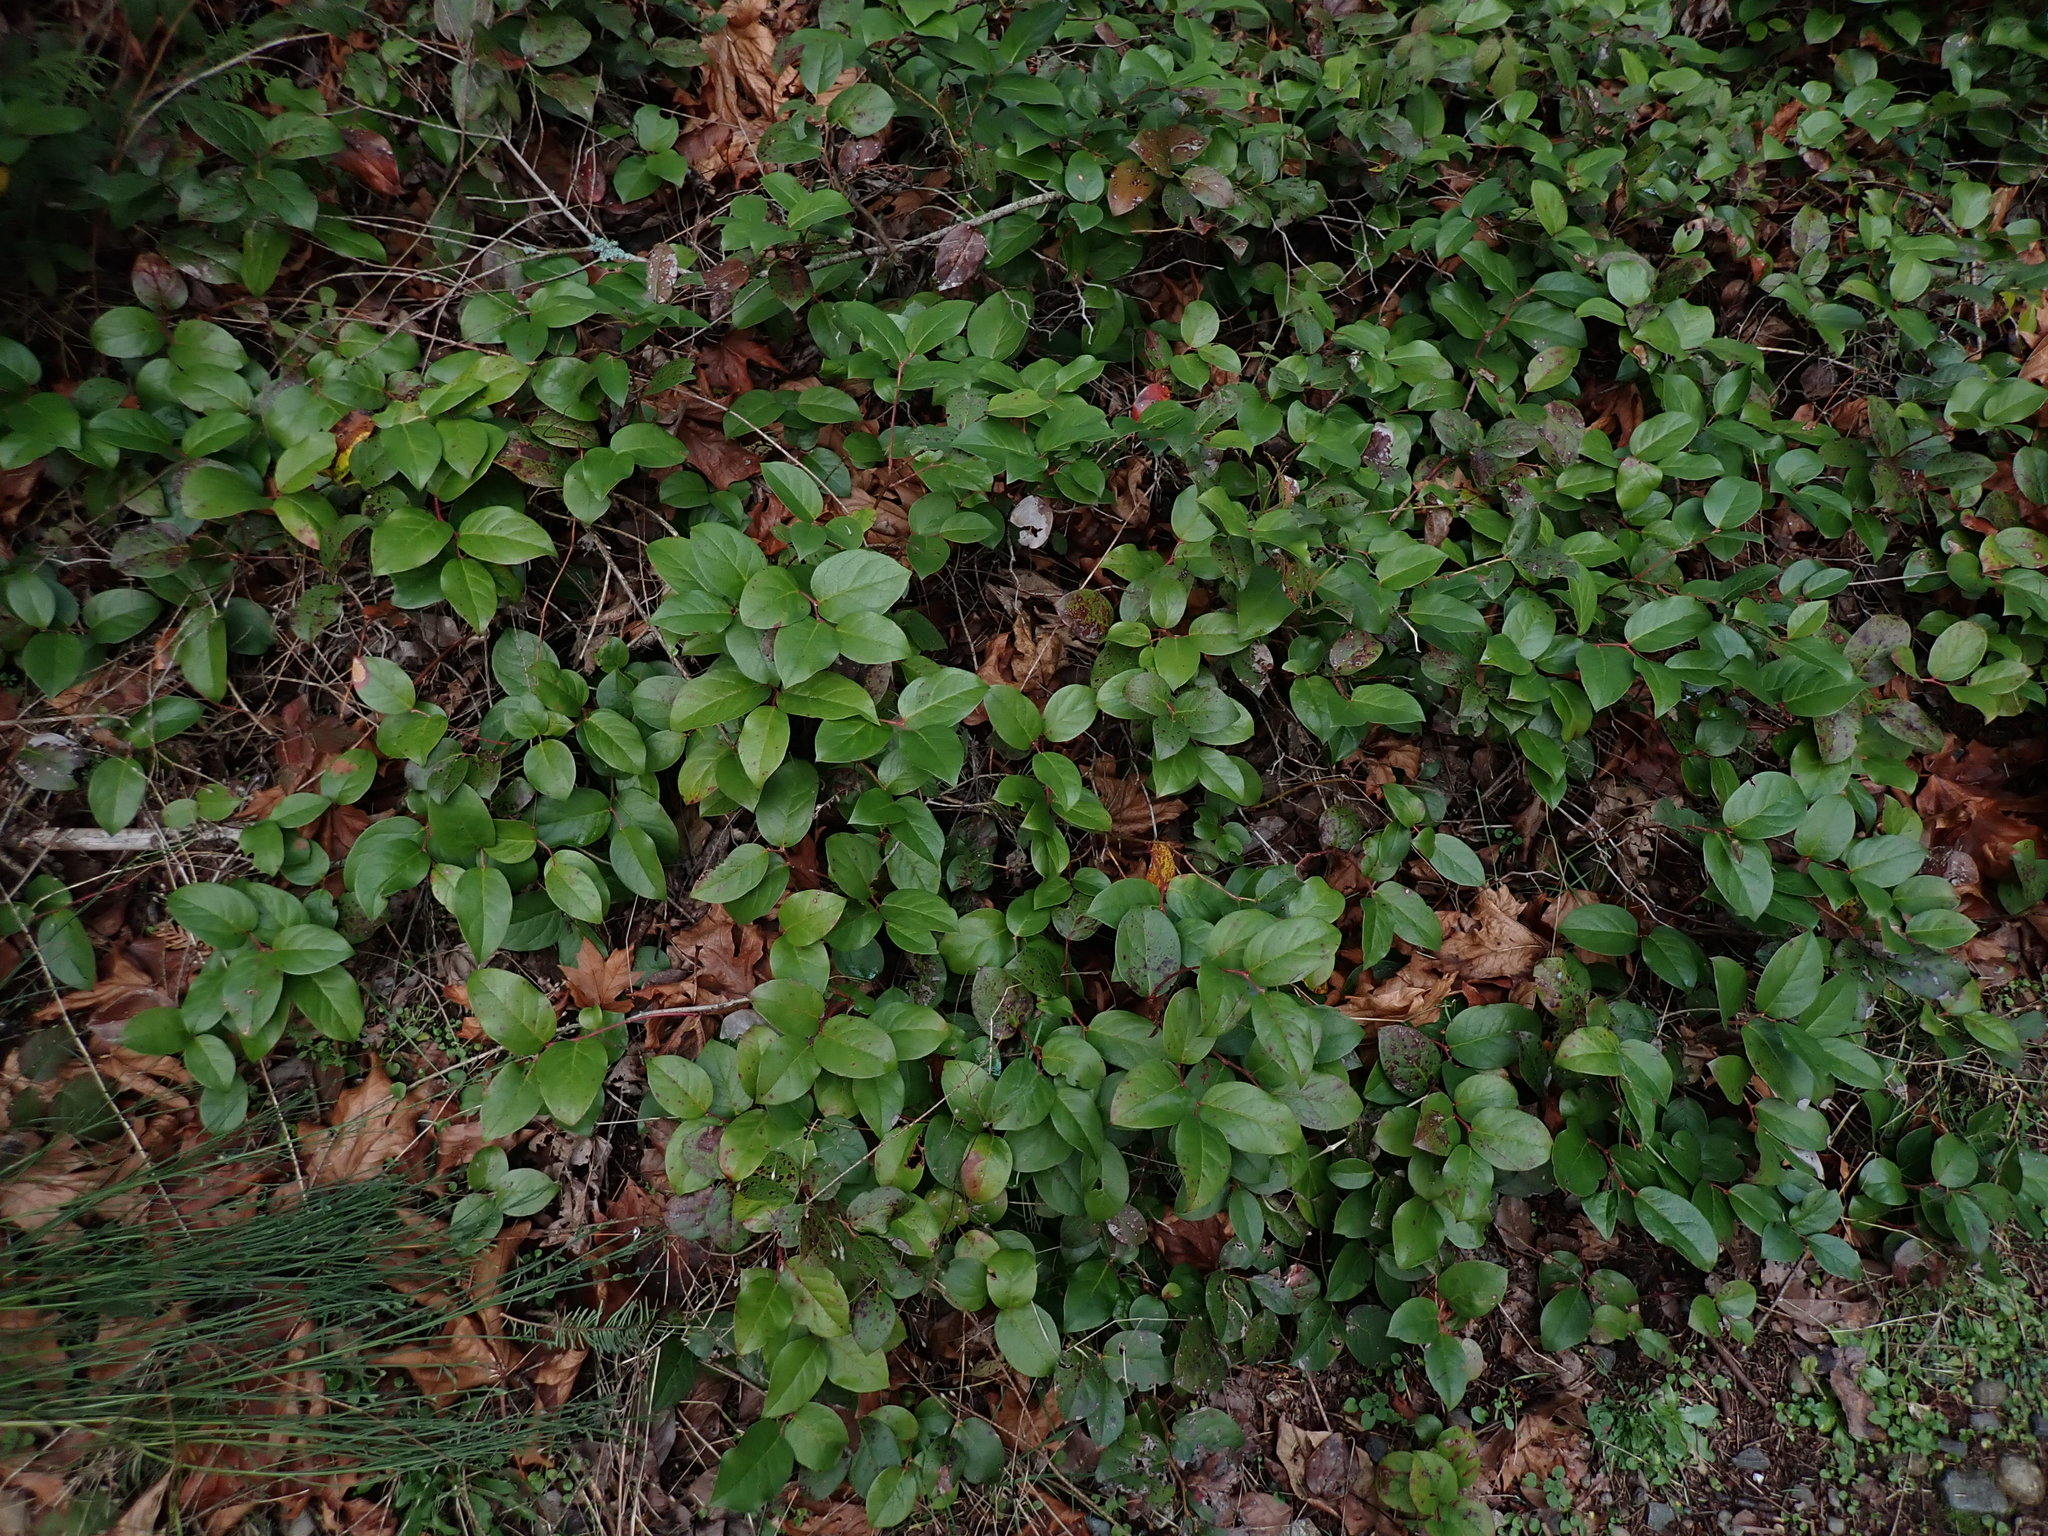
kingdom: Plantae
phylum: Tracheophyta
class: Magnoliopsida
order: Ericales
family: Ericaceae
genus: Gaultheria
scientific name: Gaultheria shallon
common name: Shallon
